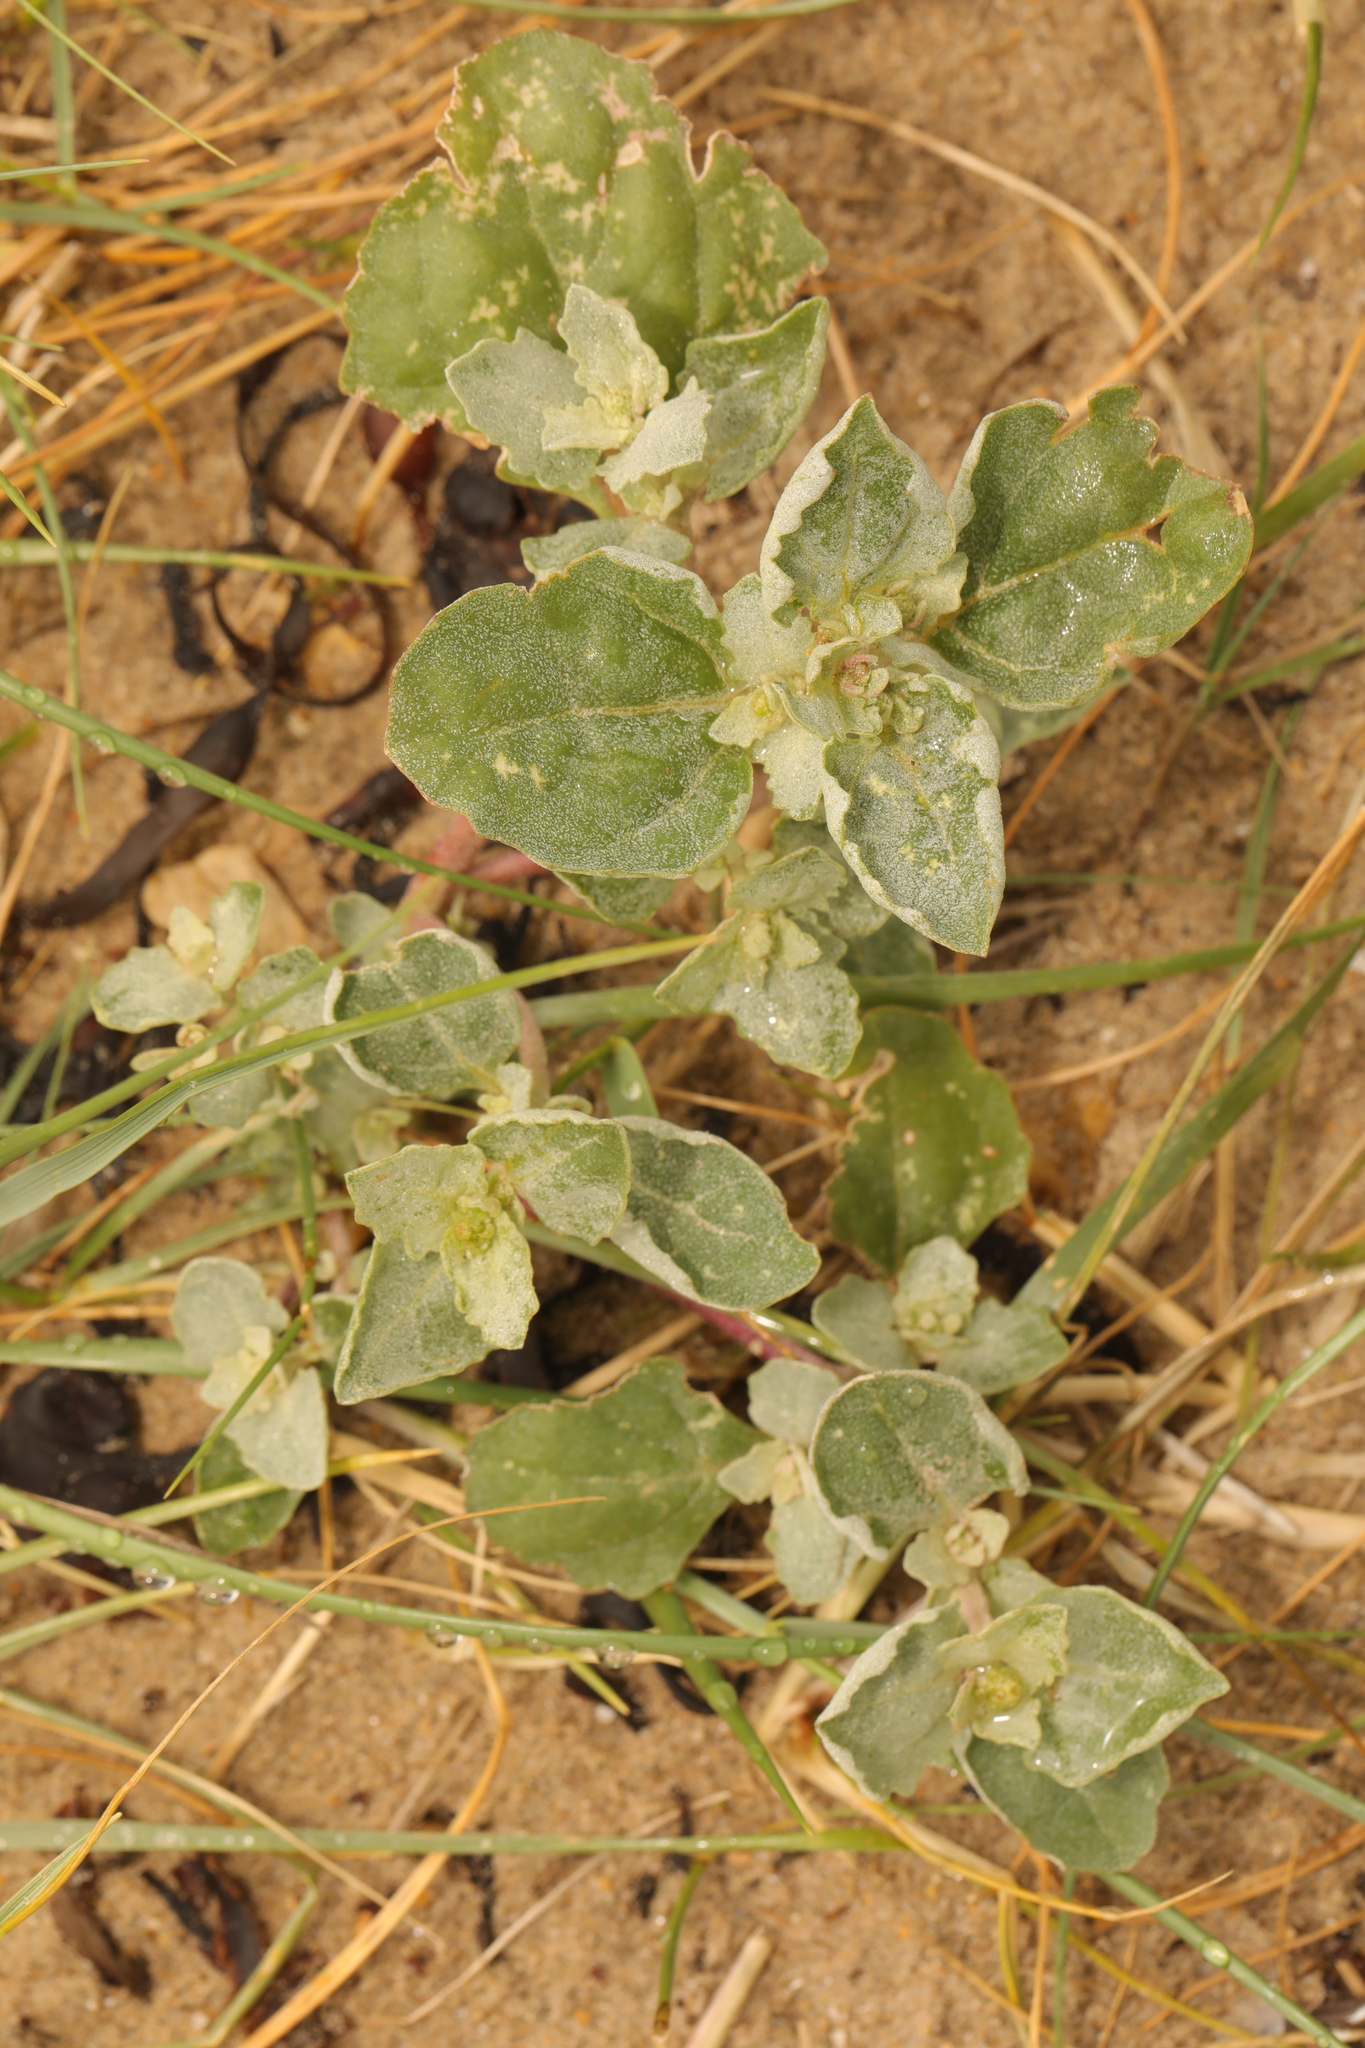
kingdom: Plantae
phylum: Tracheophyta
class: Magnoliopsida
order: Caryophyllales
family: Amaranthaceae
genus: Atriplex
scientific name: Atriplex laciniata
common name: Frosted orache
